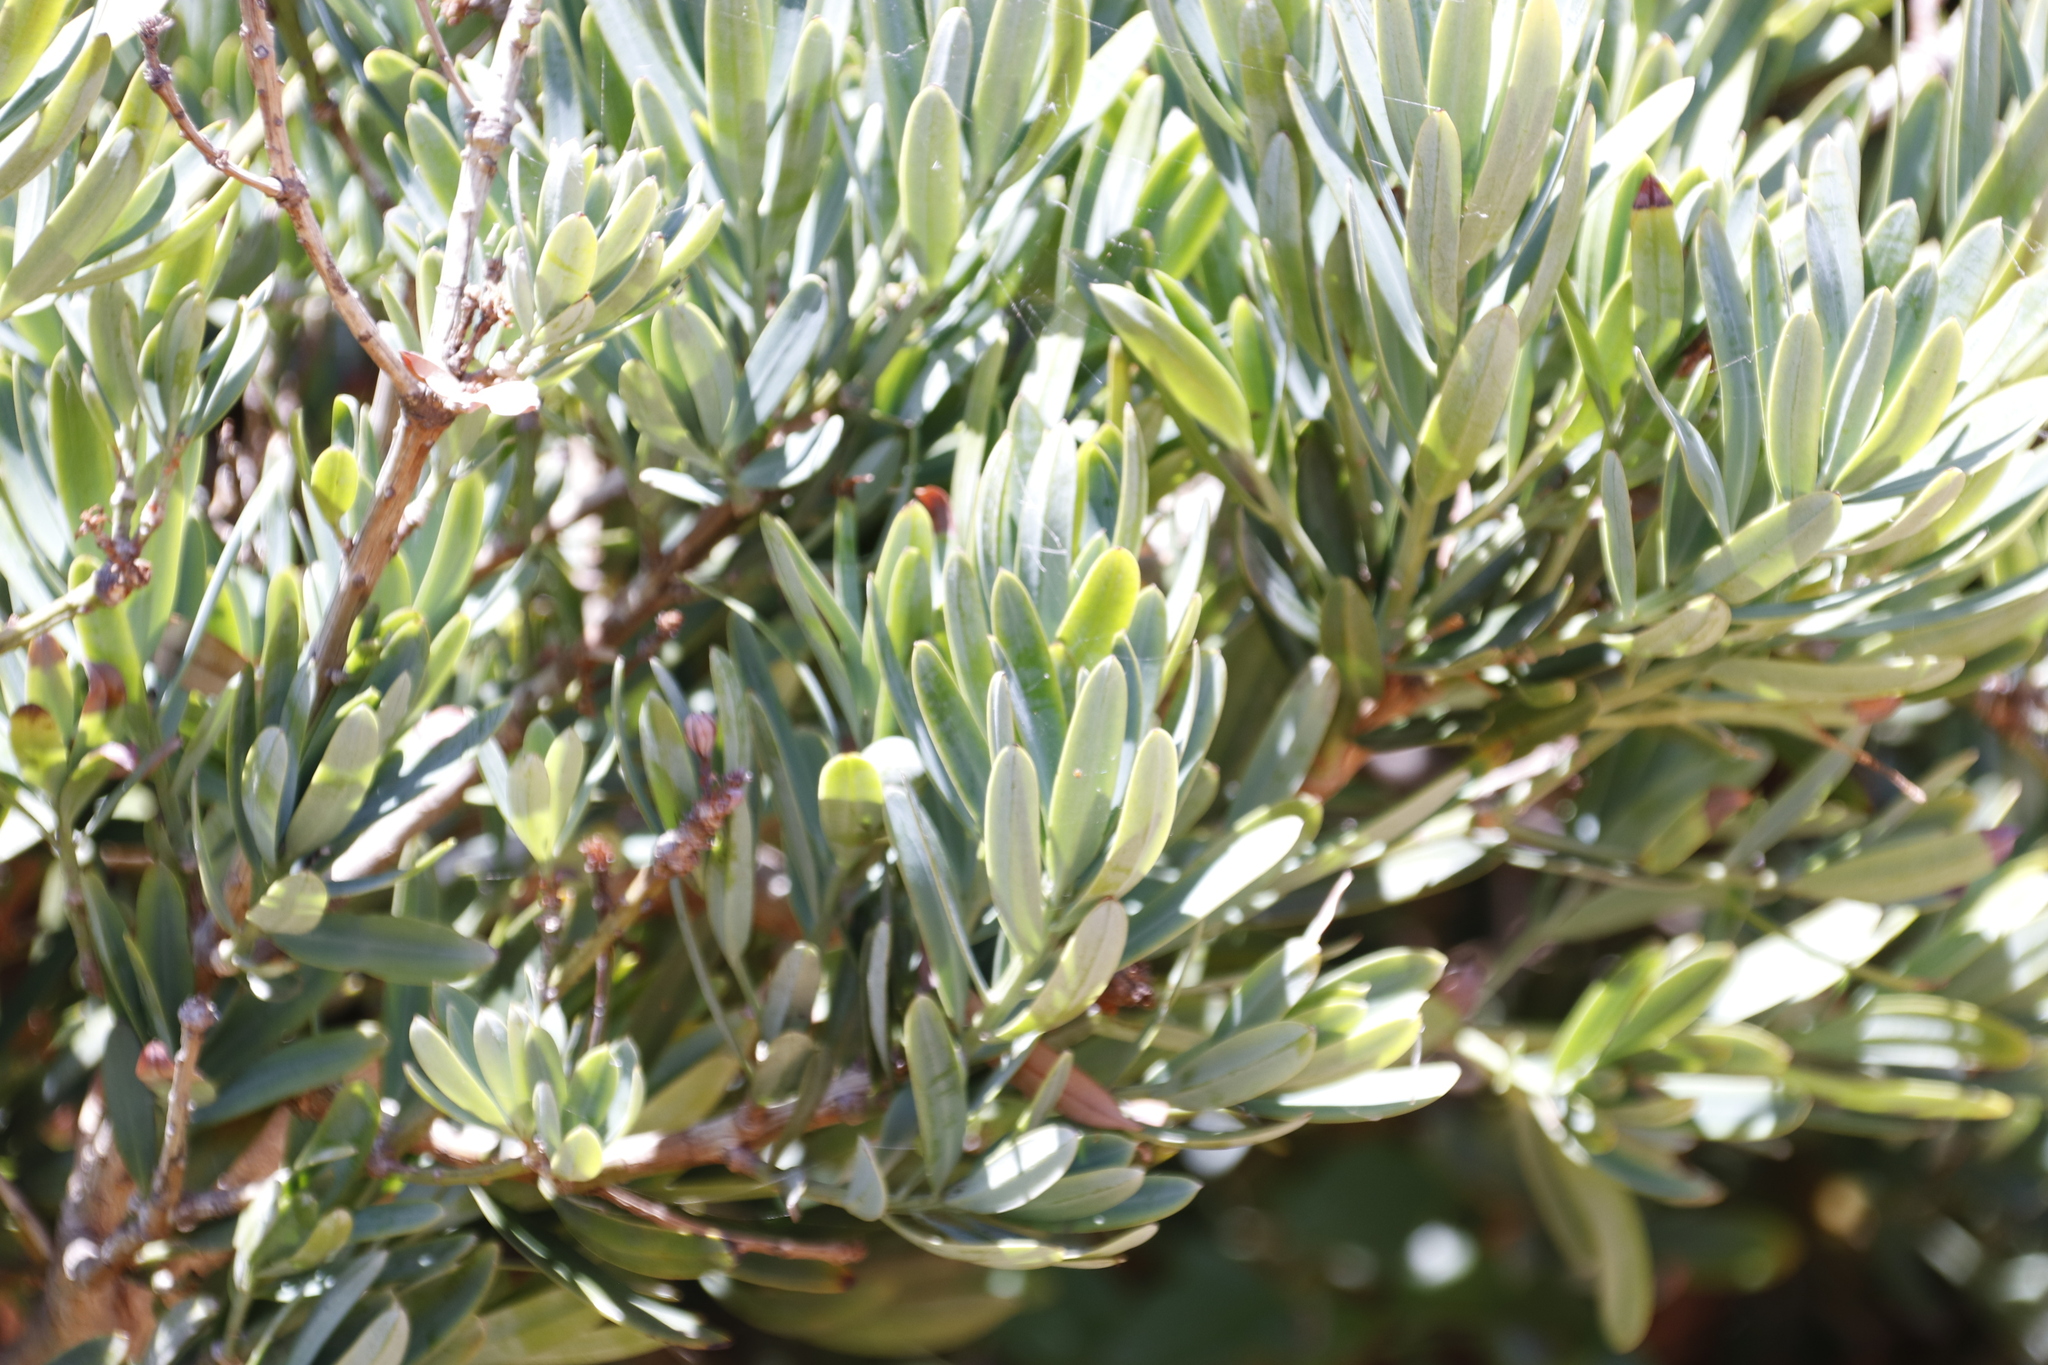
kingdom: Plantae
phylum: Tracheophyta
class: Pinopsida
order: Pinales
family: Podocarpaceae
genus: Podocarpus
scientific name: Podocarpus latifolius
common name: True yellowwood
